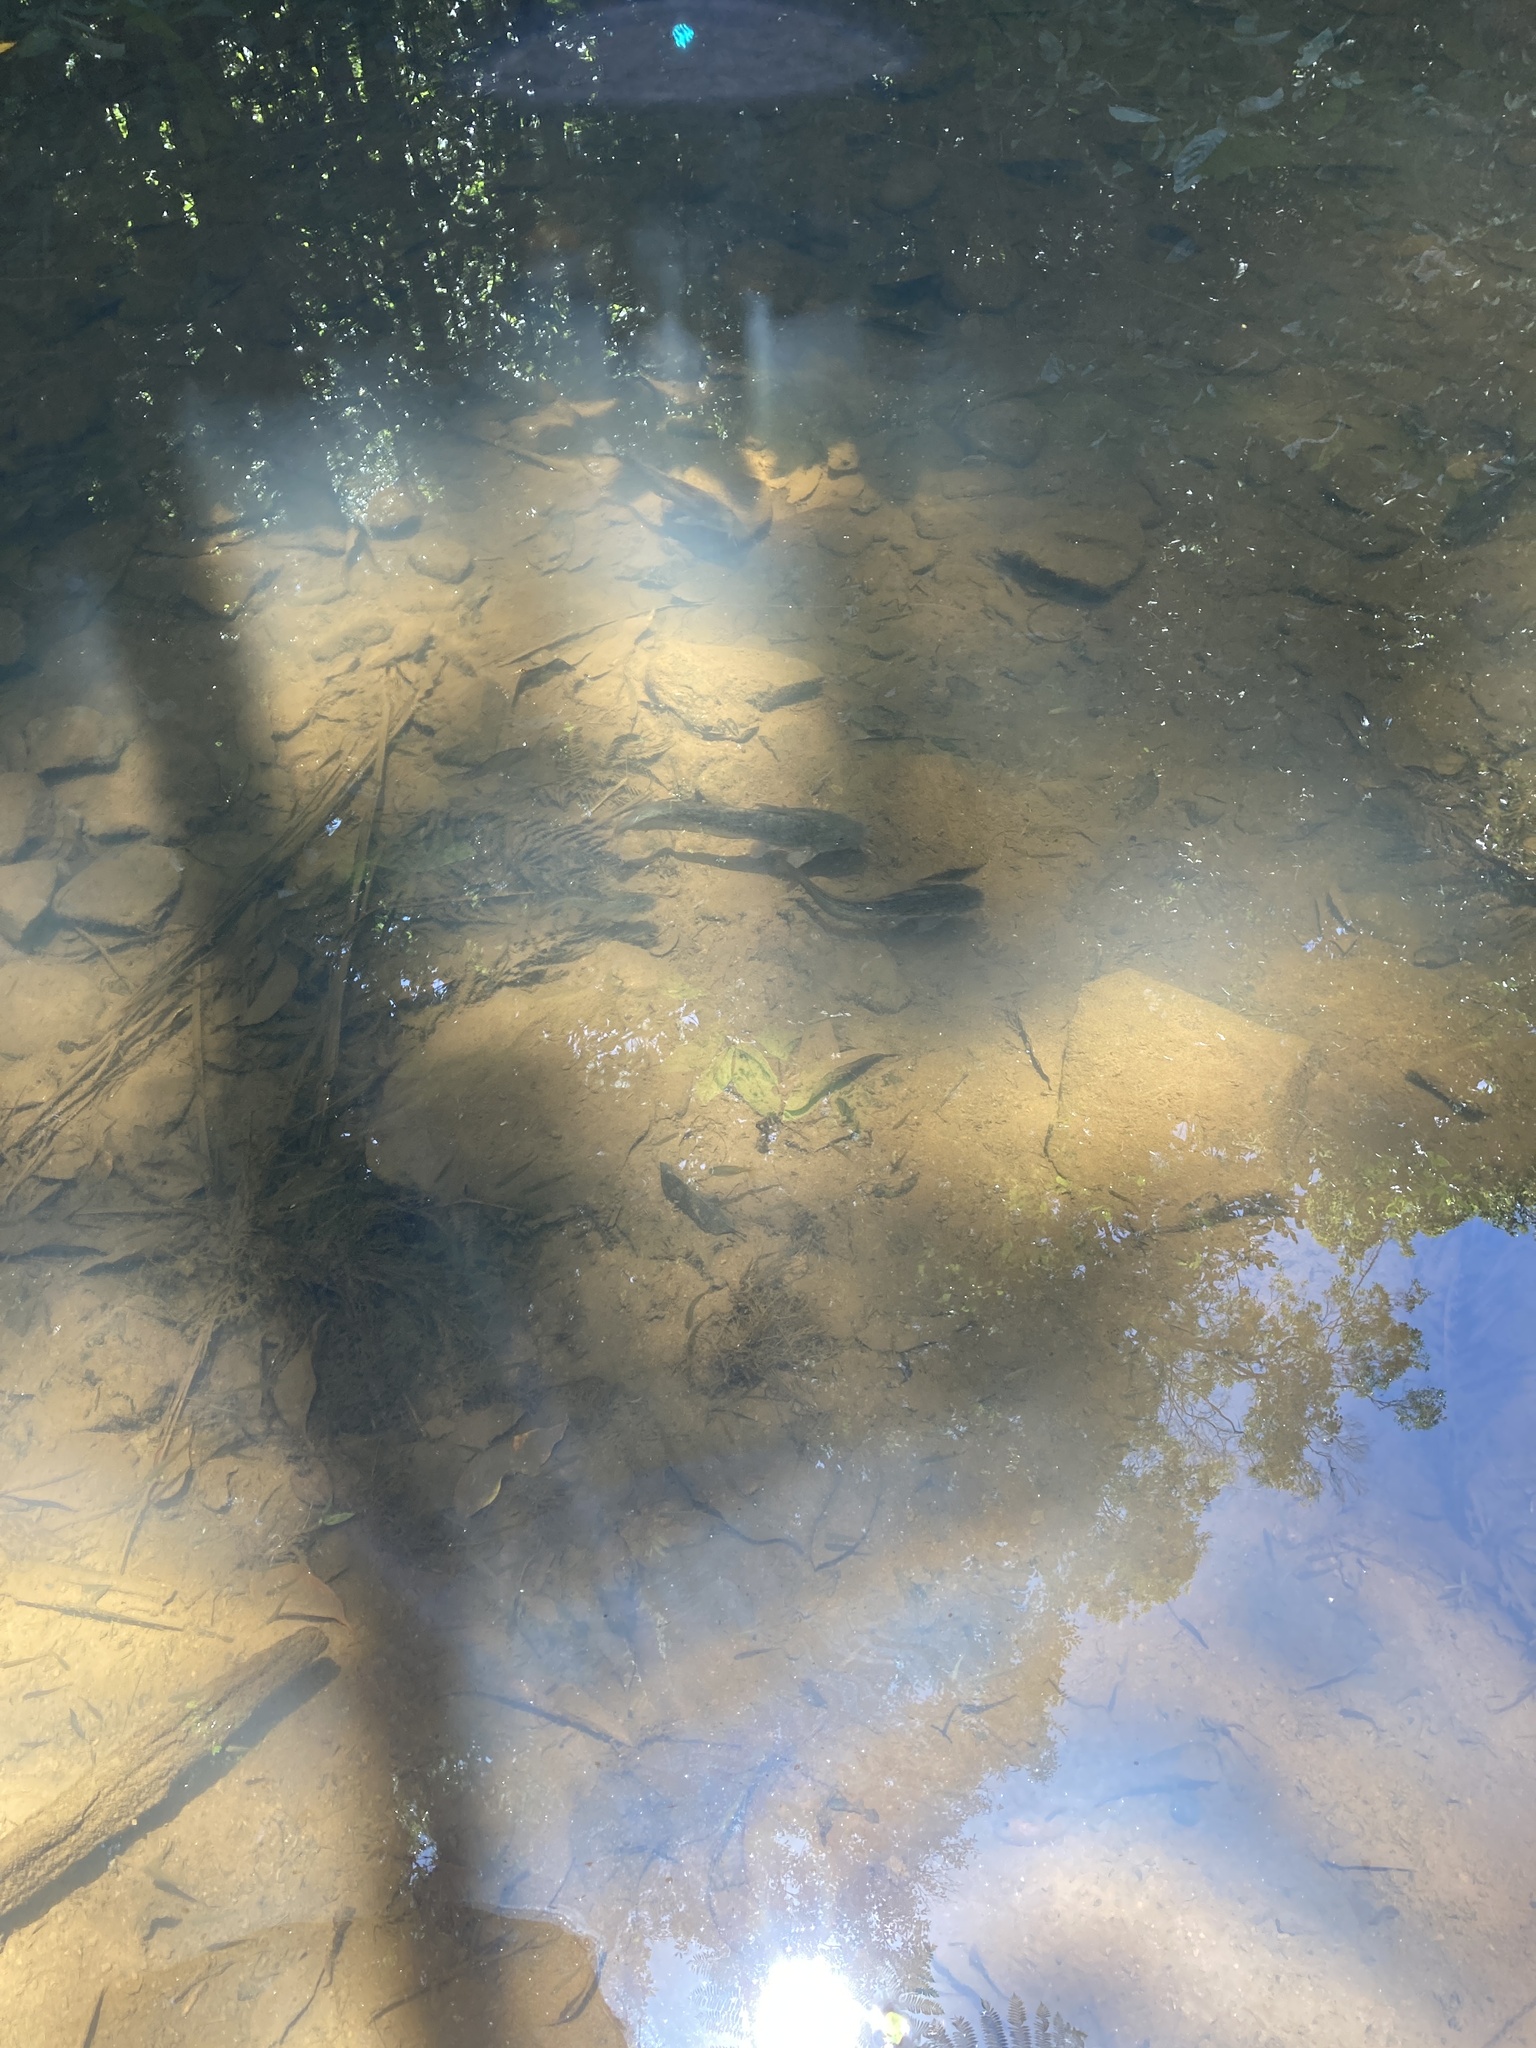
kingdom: Animalia
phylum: Chordata
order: Siluriformes
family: Plotosidae
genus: Tandanus
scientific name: Tandanus tropicanus
